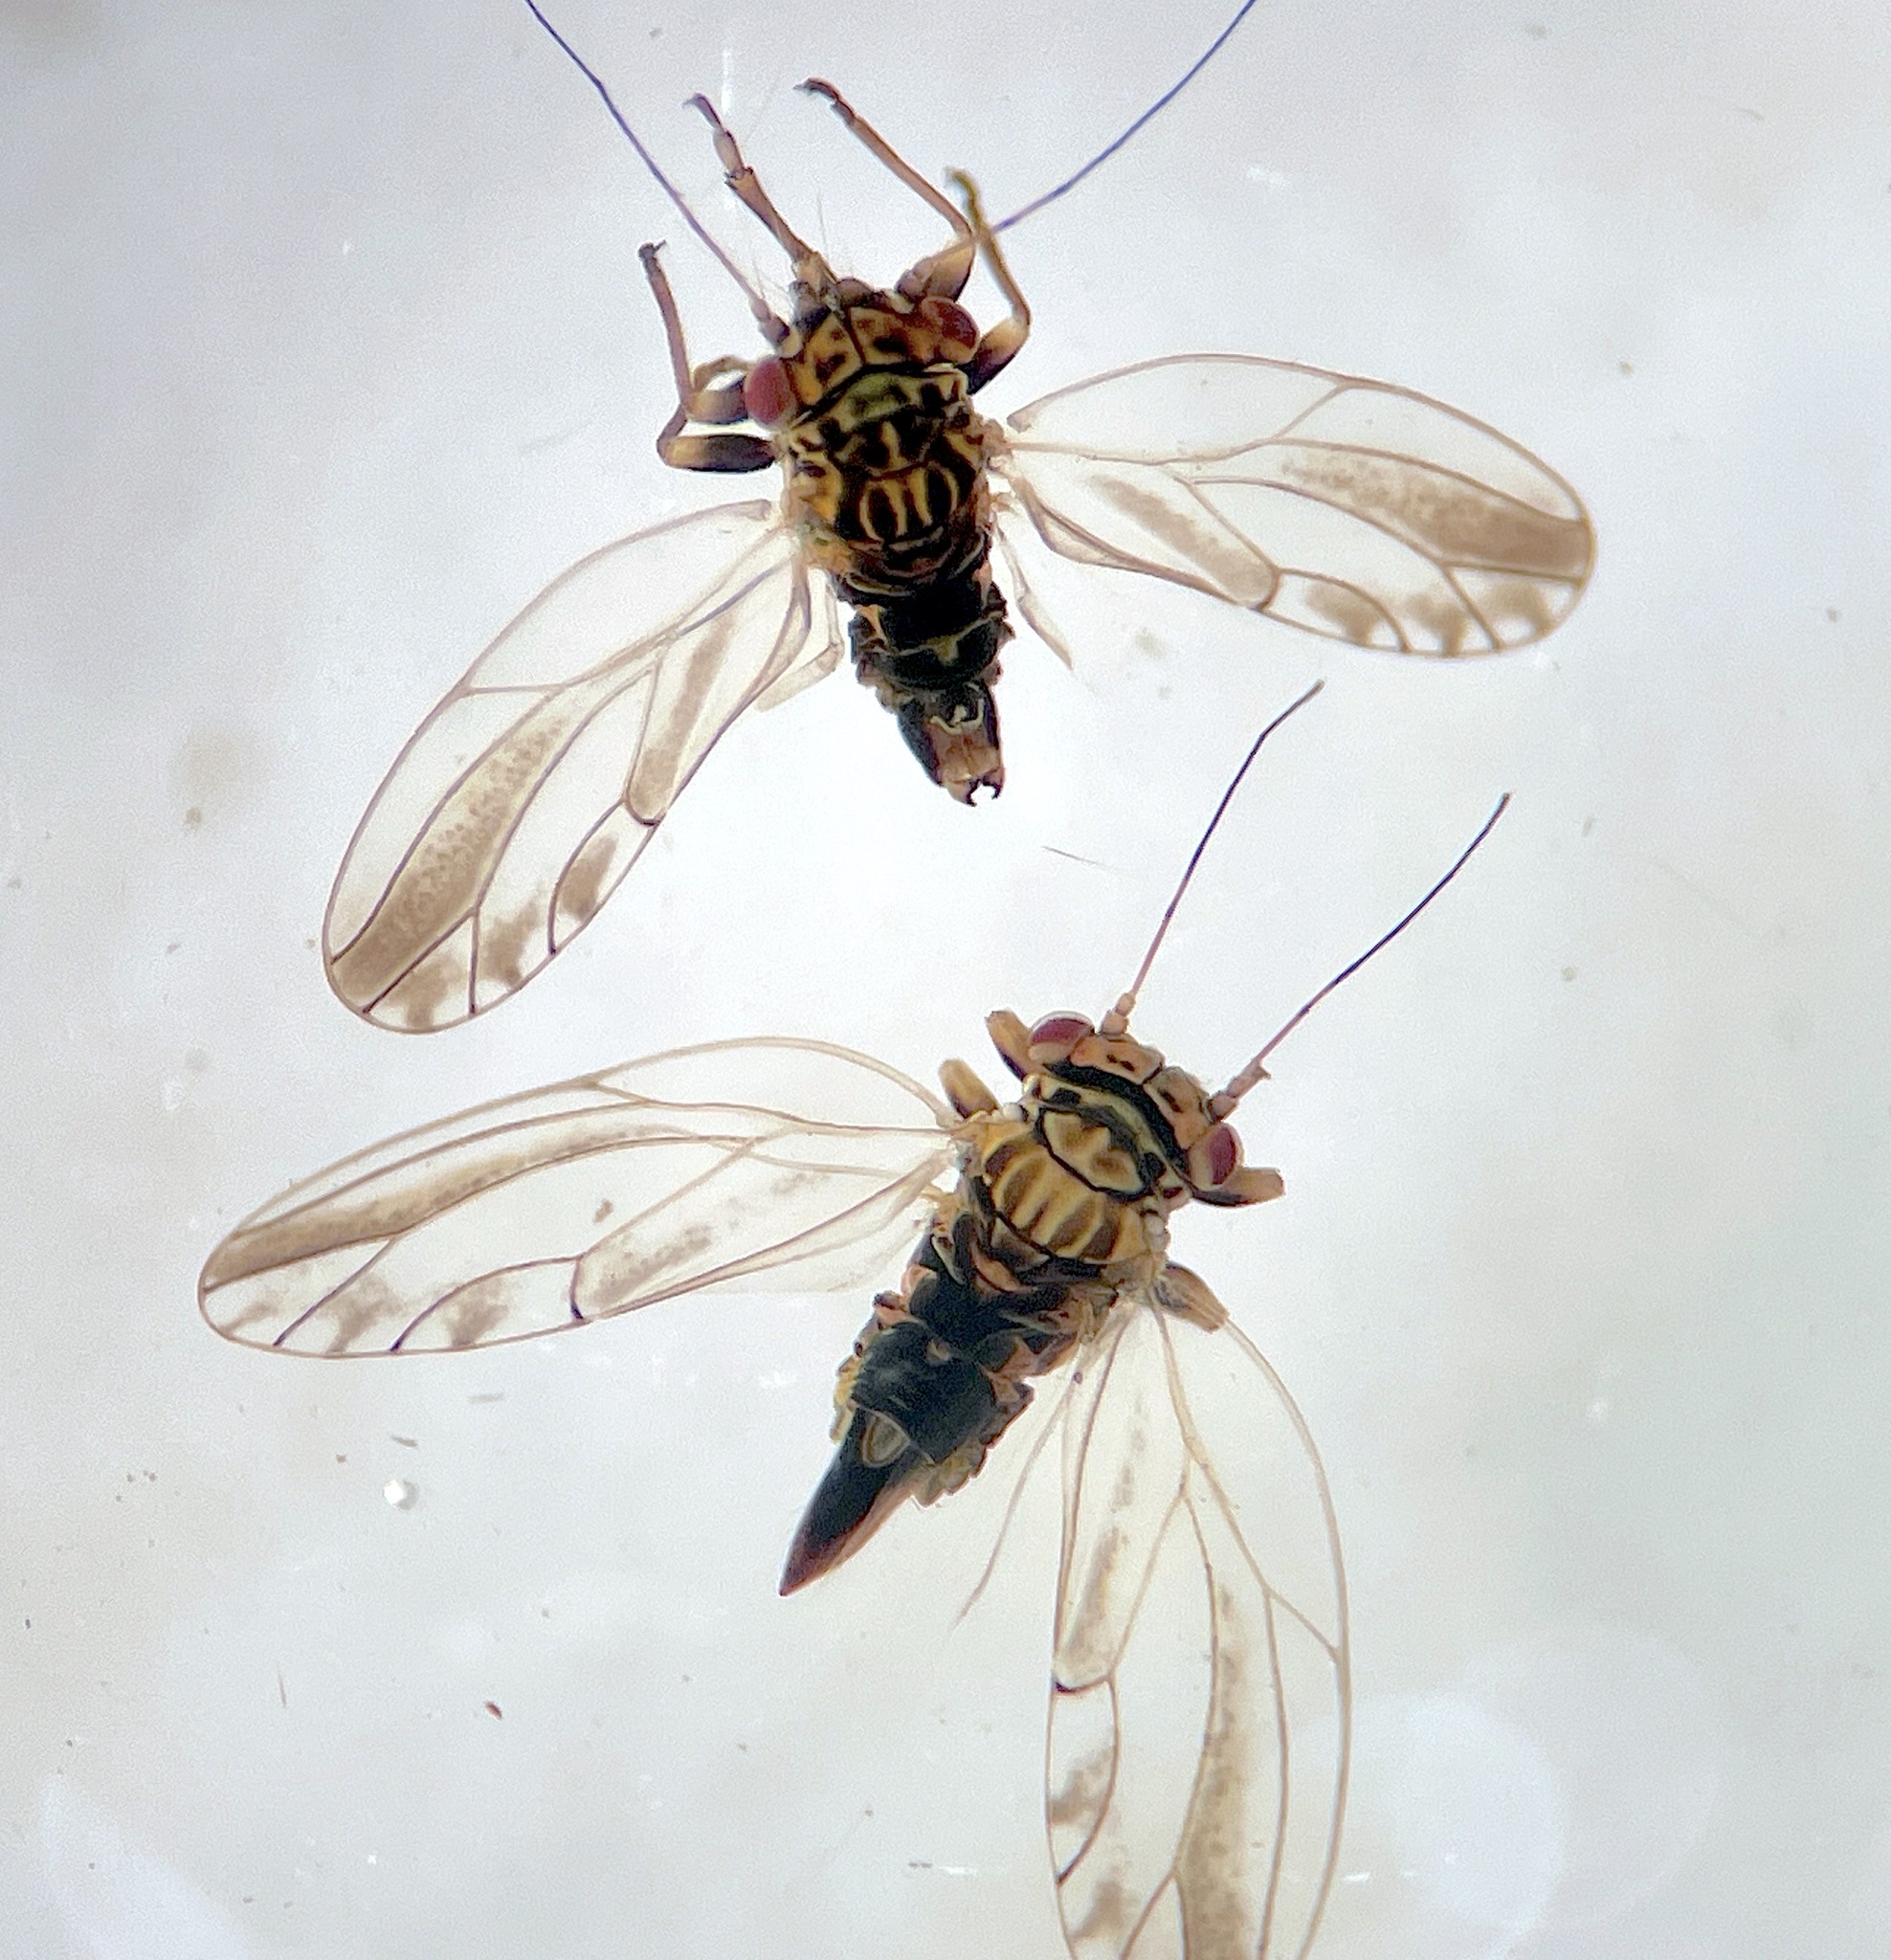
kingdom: Animalia
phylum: Arthropoda
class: Insecta
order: Hemiptera
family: Psyllidae
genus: Arytaina
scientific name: Arytaina genistae
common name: Psyllid
